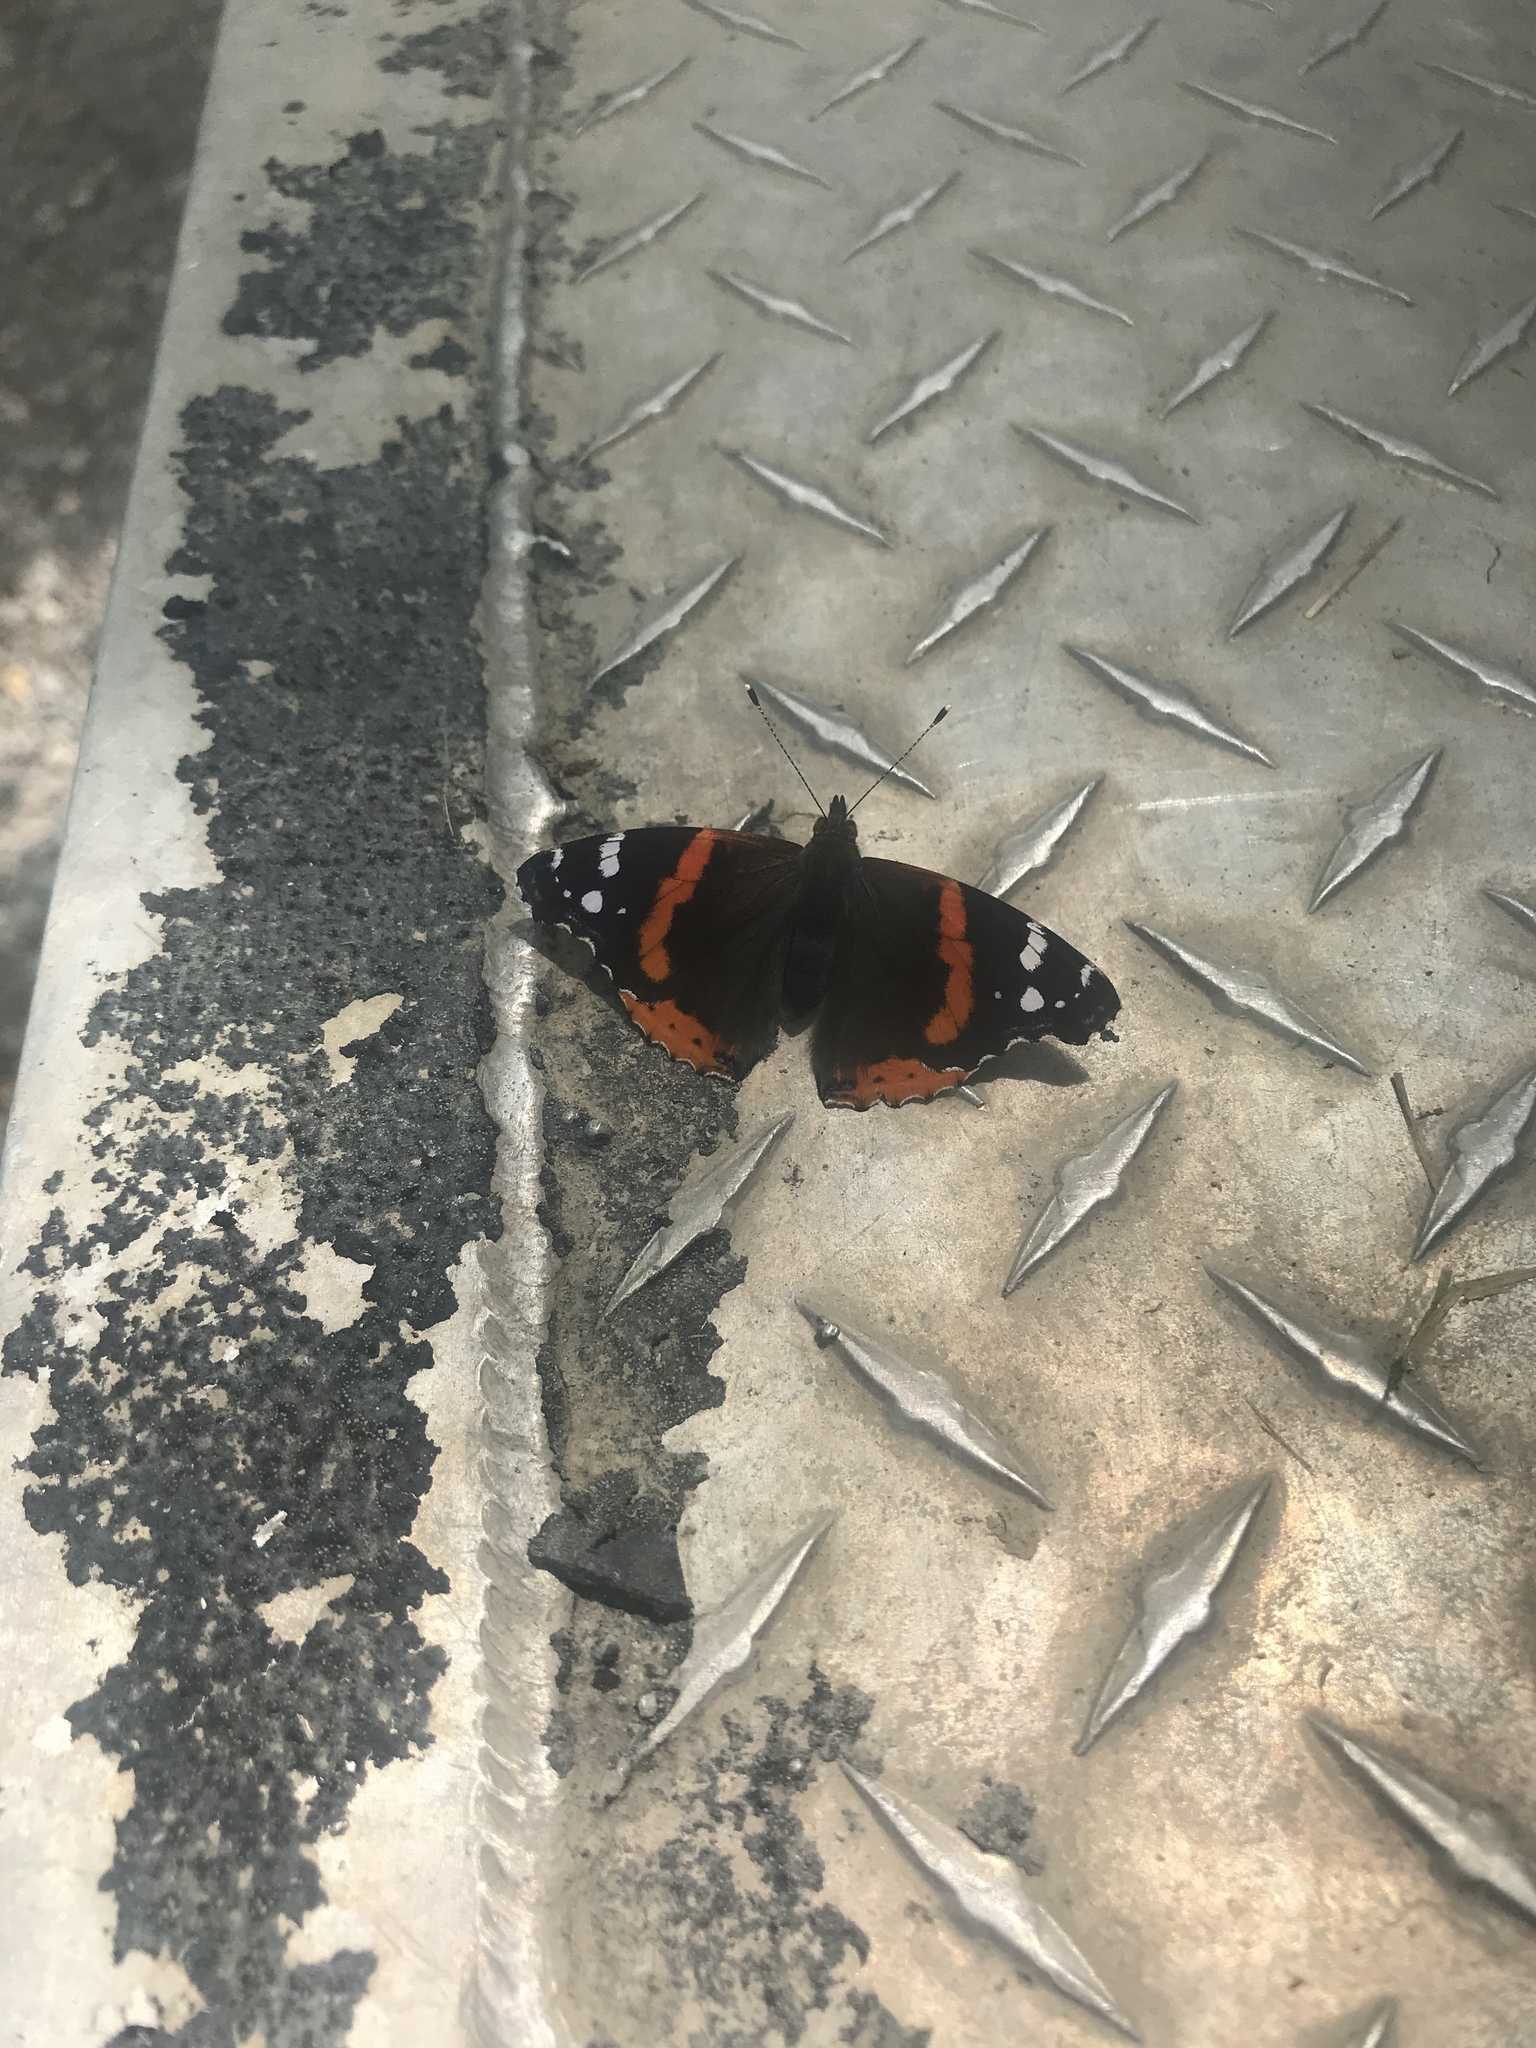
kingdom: Animalia
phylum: Arthropoda
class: Insecta
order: Lepidoptera
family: Nymphalidae
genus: Vanessa
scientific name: Vanessa atalanta
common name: Red admiral
